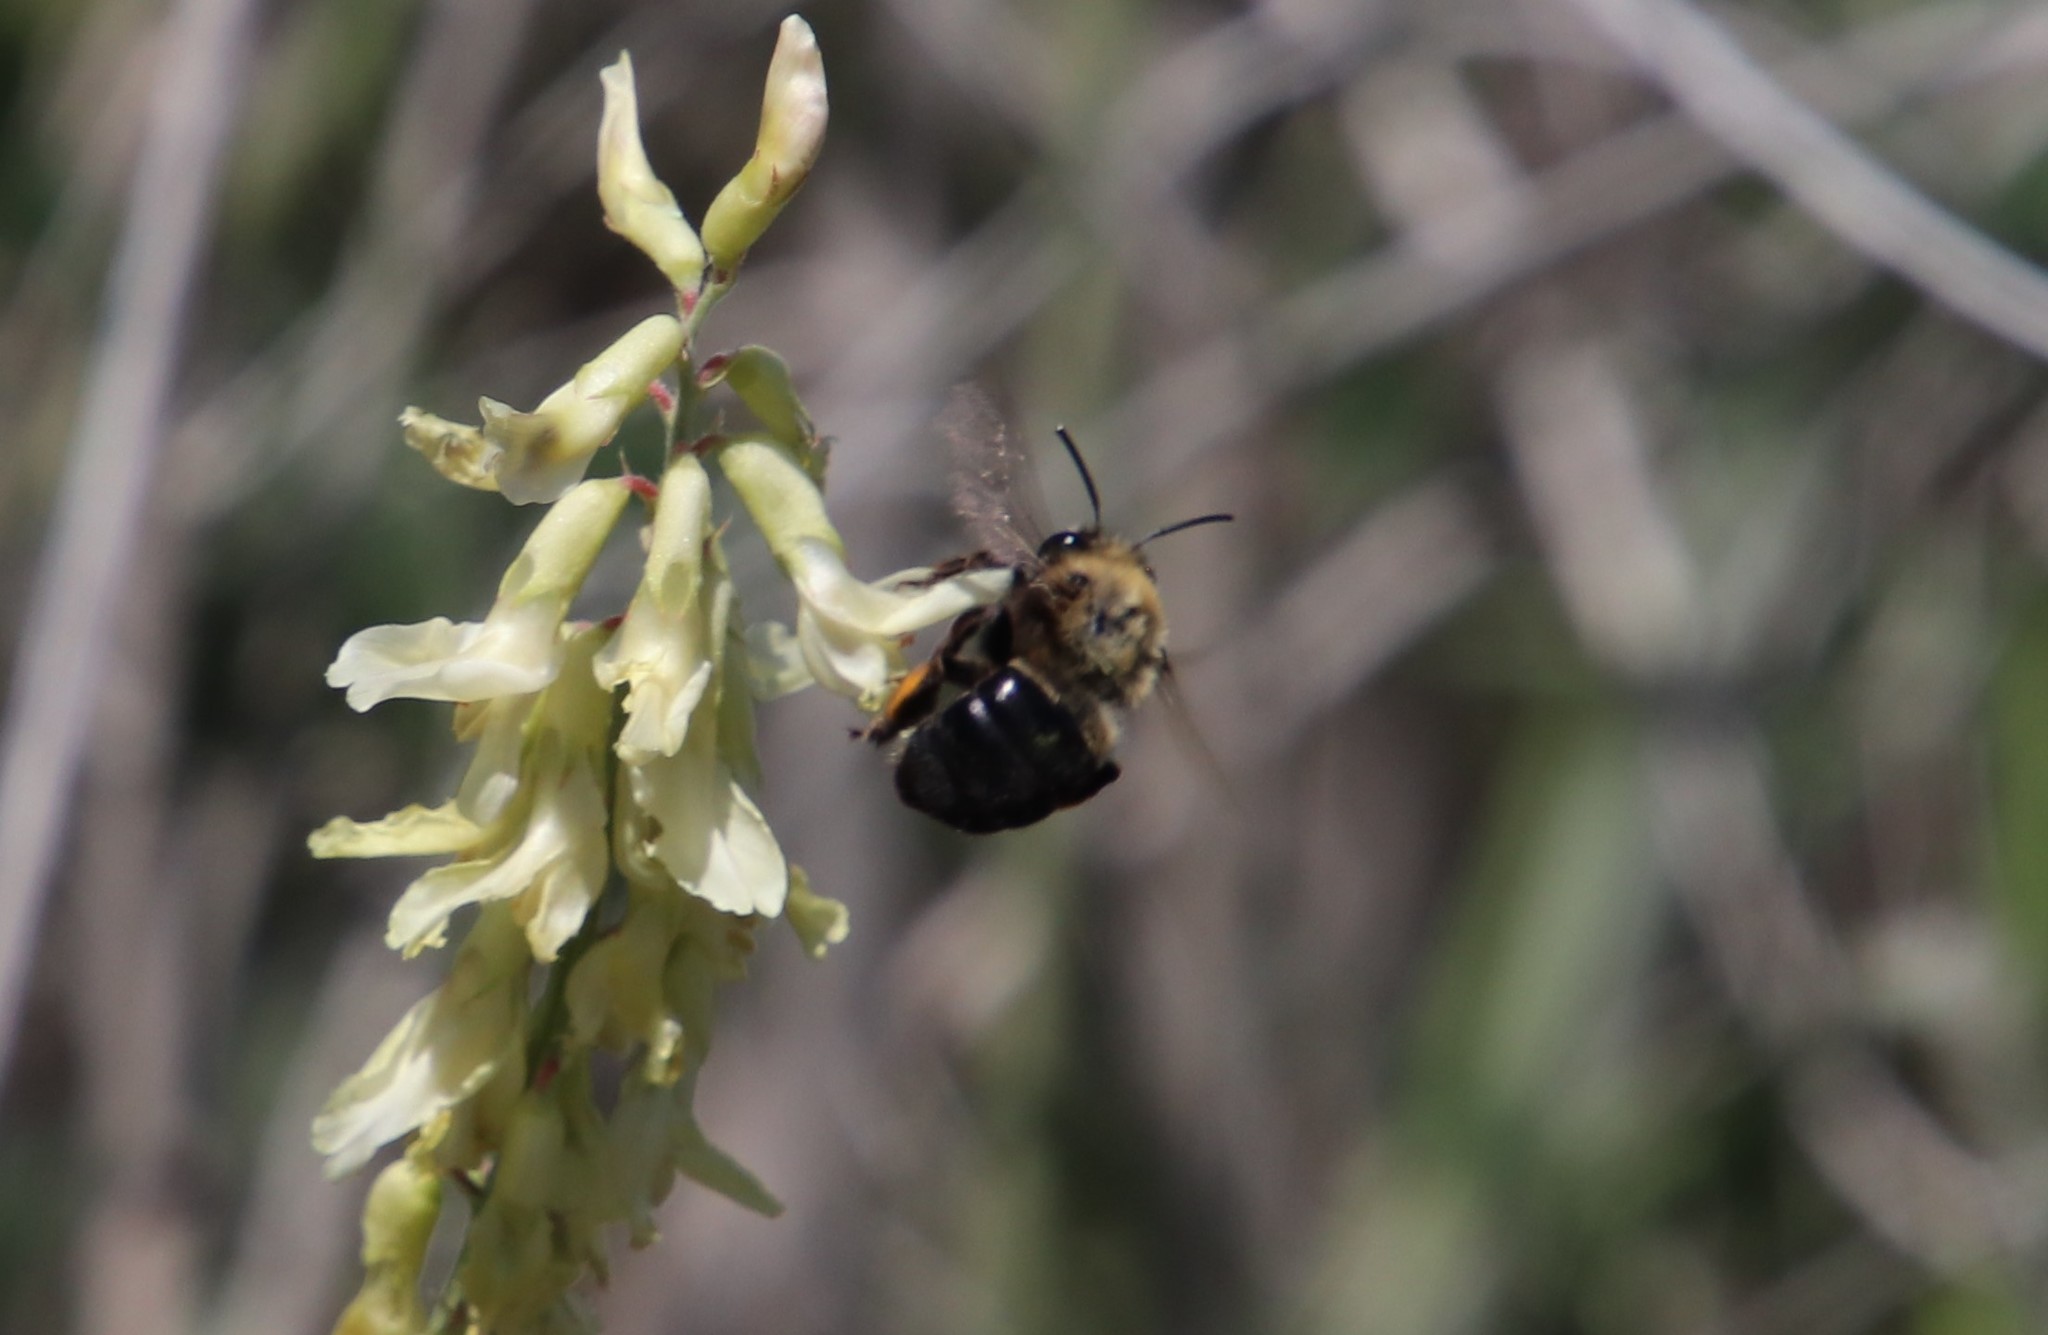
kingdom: Animalia
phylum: Arthropoda
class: Insecta
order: Hymenoptera
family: Apidae
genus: Habropoda
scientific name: Habropoda tristissima
